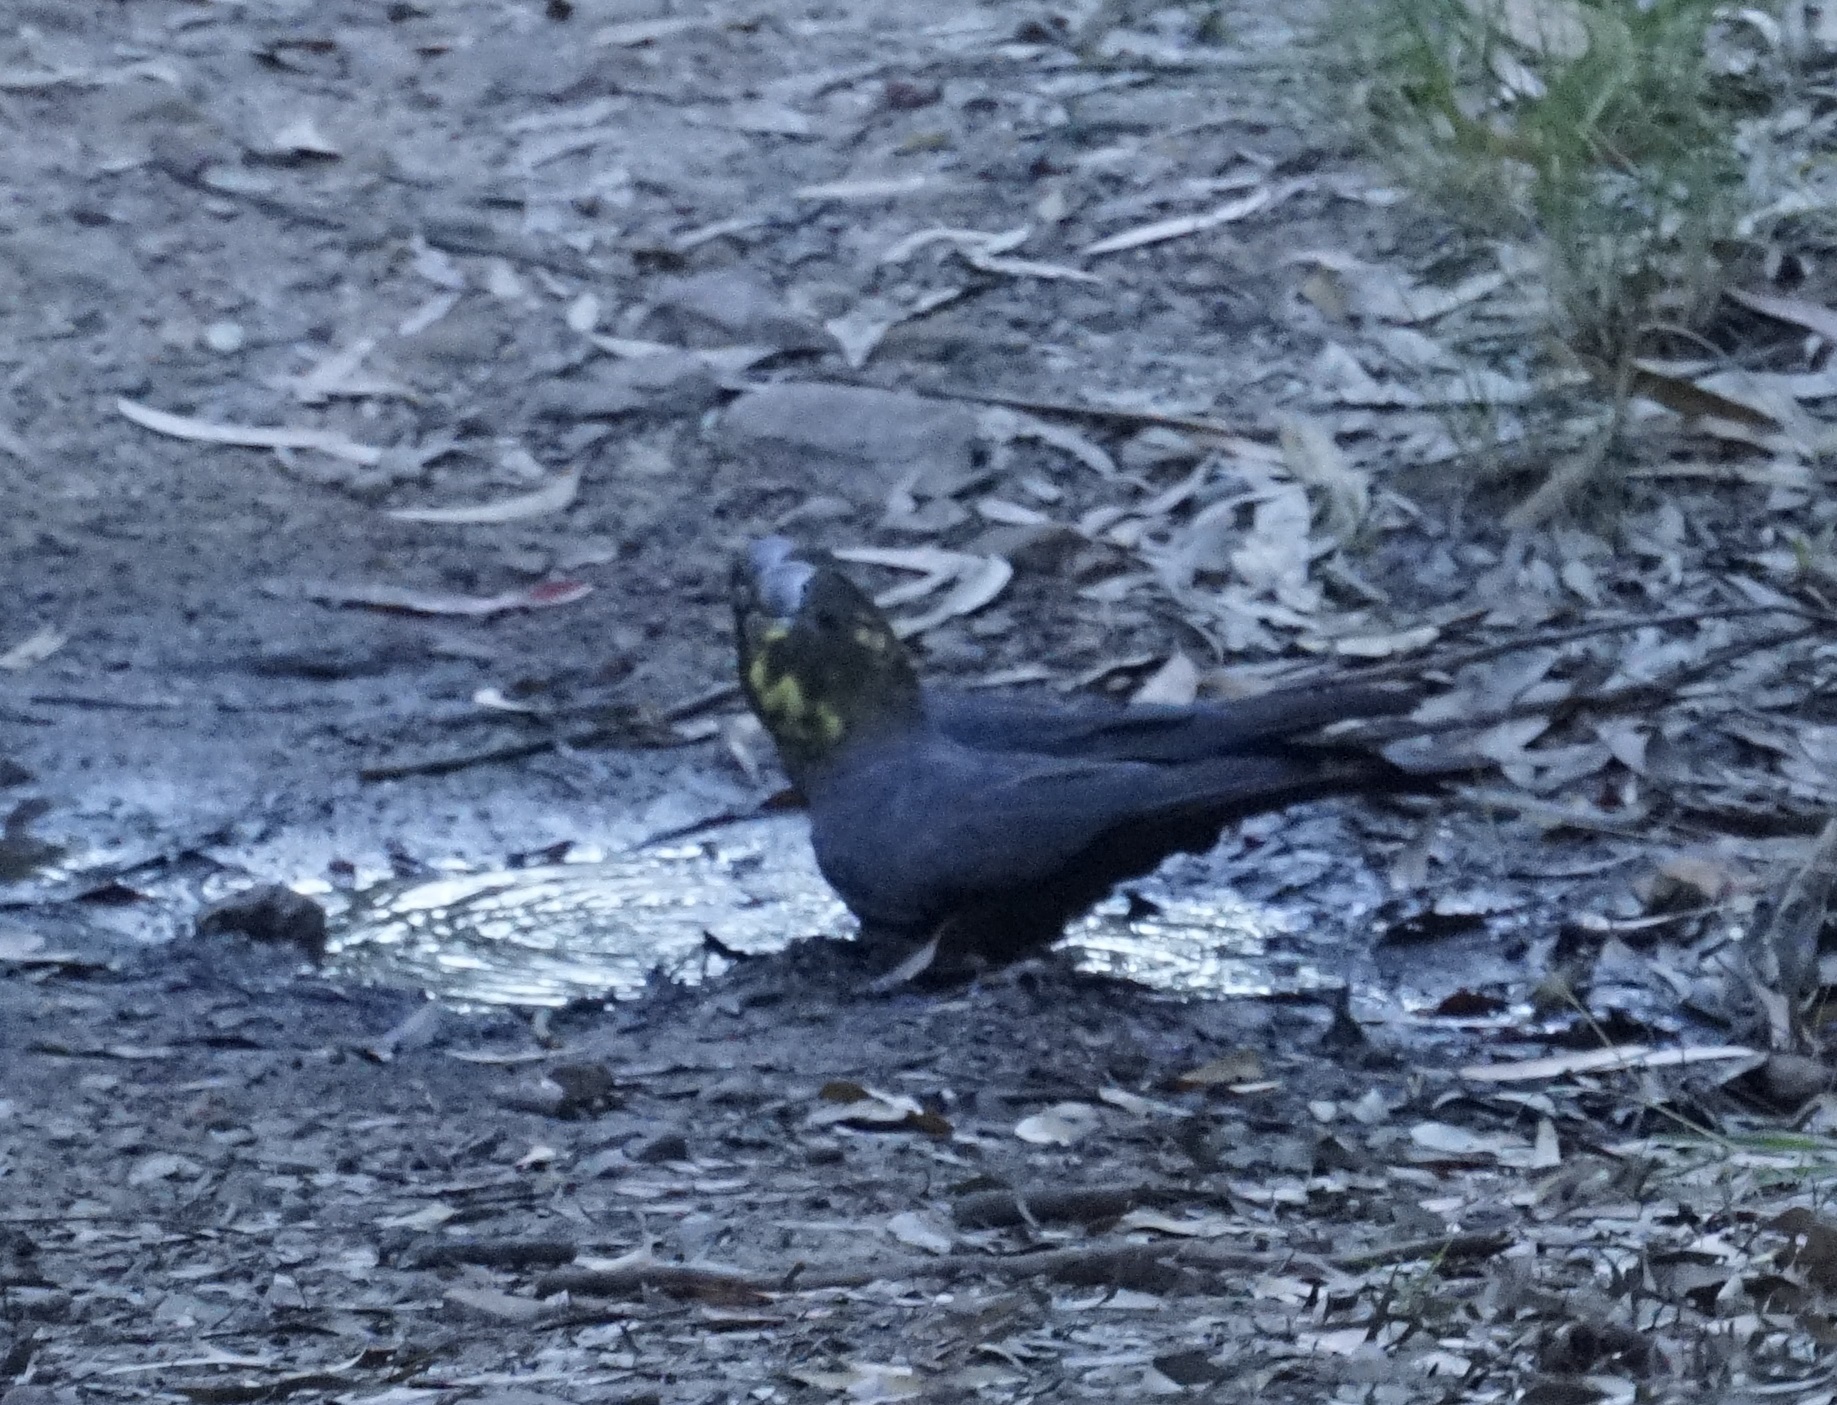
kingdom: Animalia
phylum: Chordata
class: Aves
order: Psittaciformes
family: Psittacidae
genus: Calyptorhynchus
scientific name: Calyptorhynchus lathami
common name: Glossy black cockatoo
